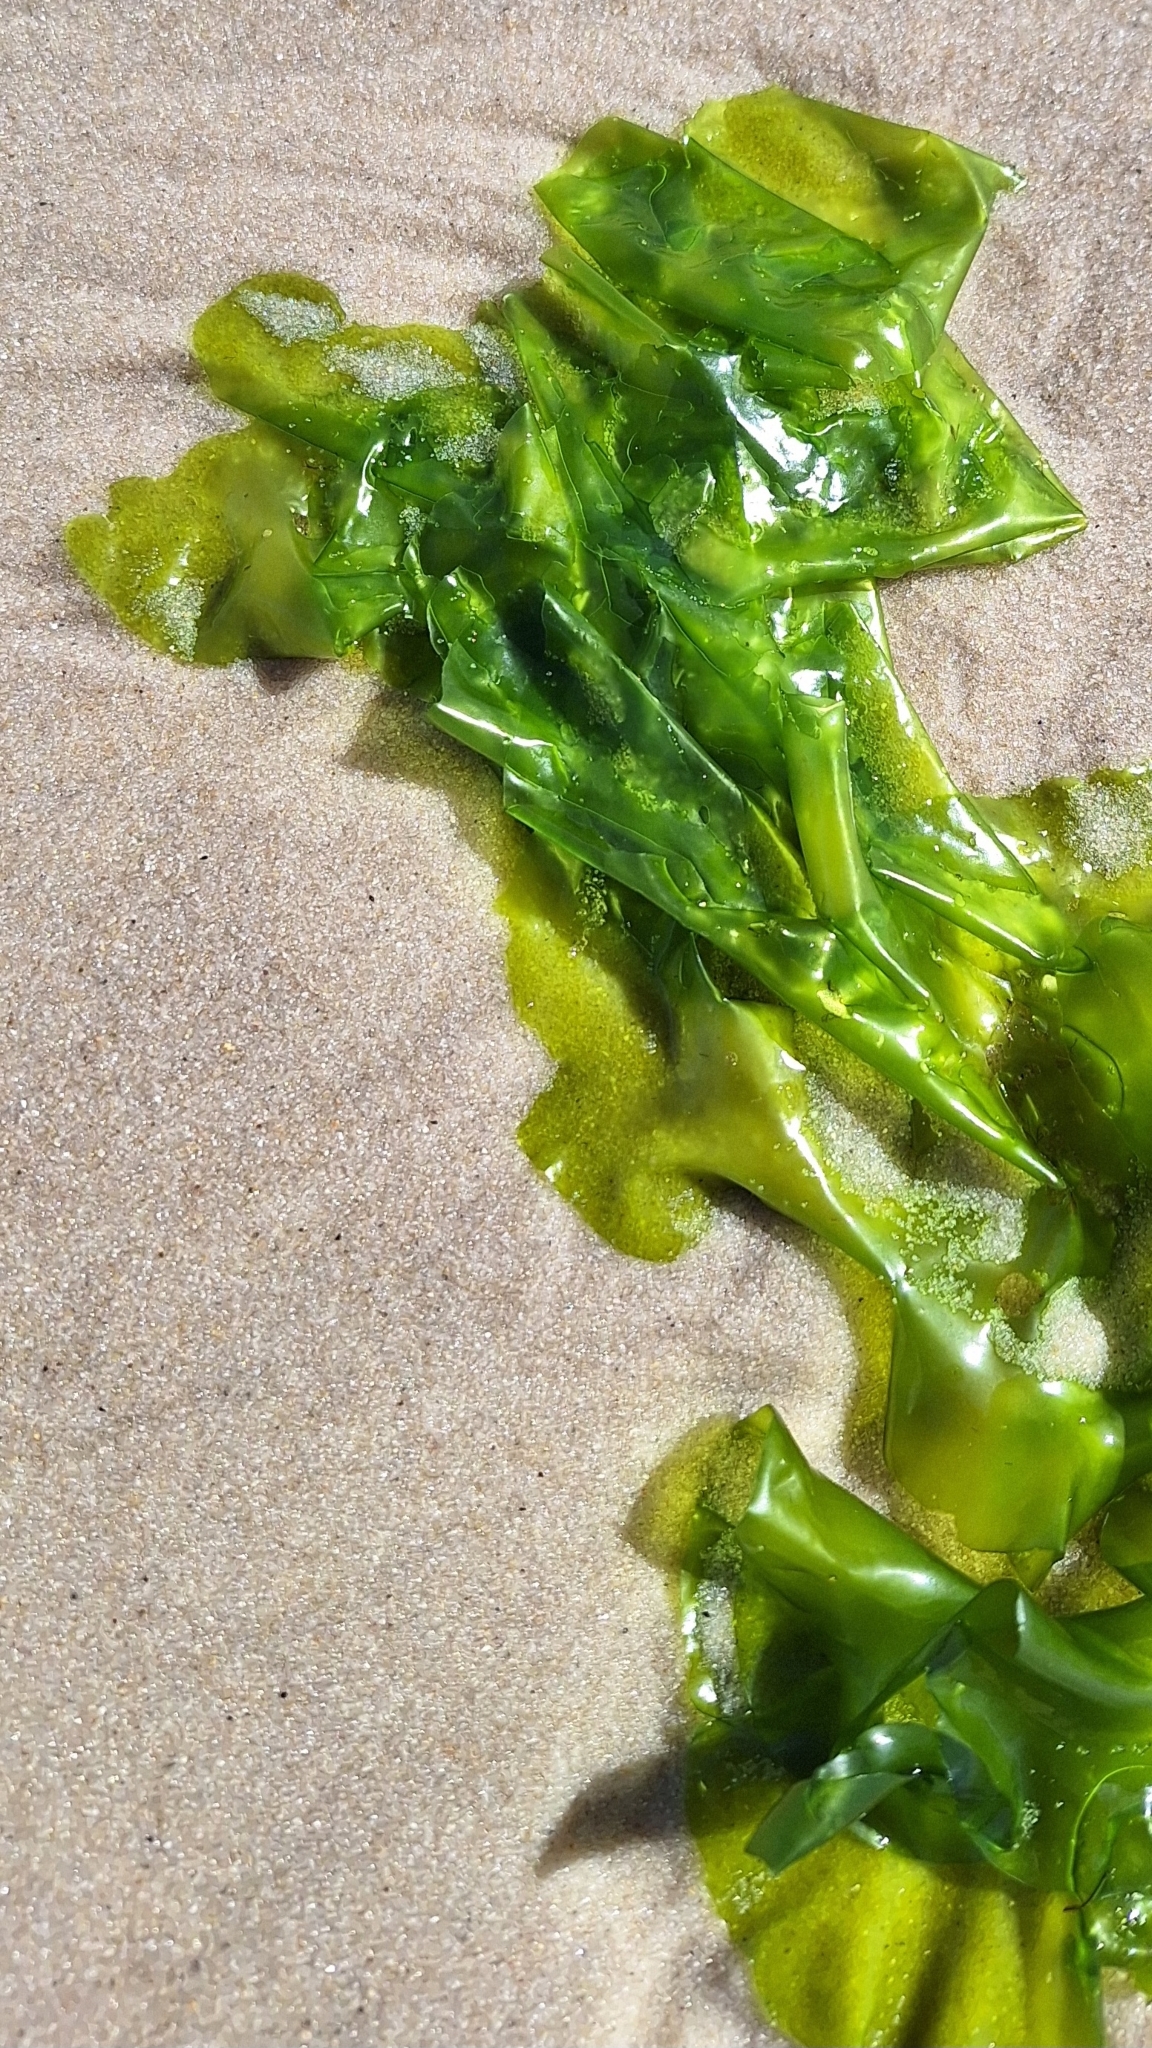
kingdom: Plantae
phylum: Chlorophyta
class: Ulvophyceae
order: Ulvales
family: Ulvaceae
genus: Ulva
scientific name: Ulva lactuca
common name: Sea lettuce
